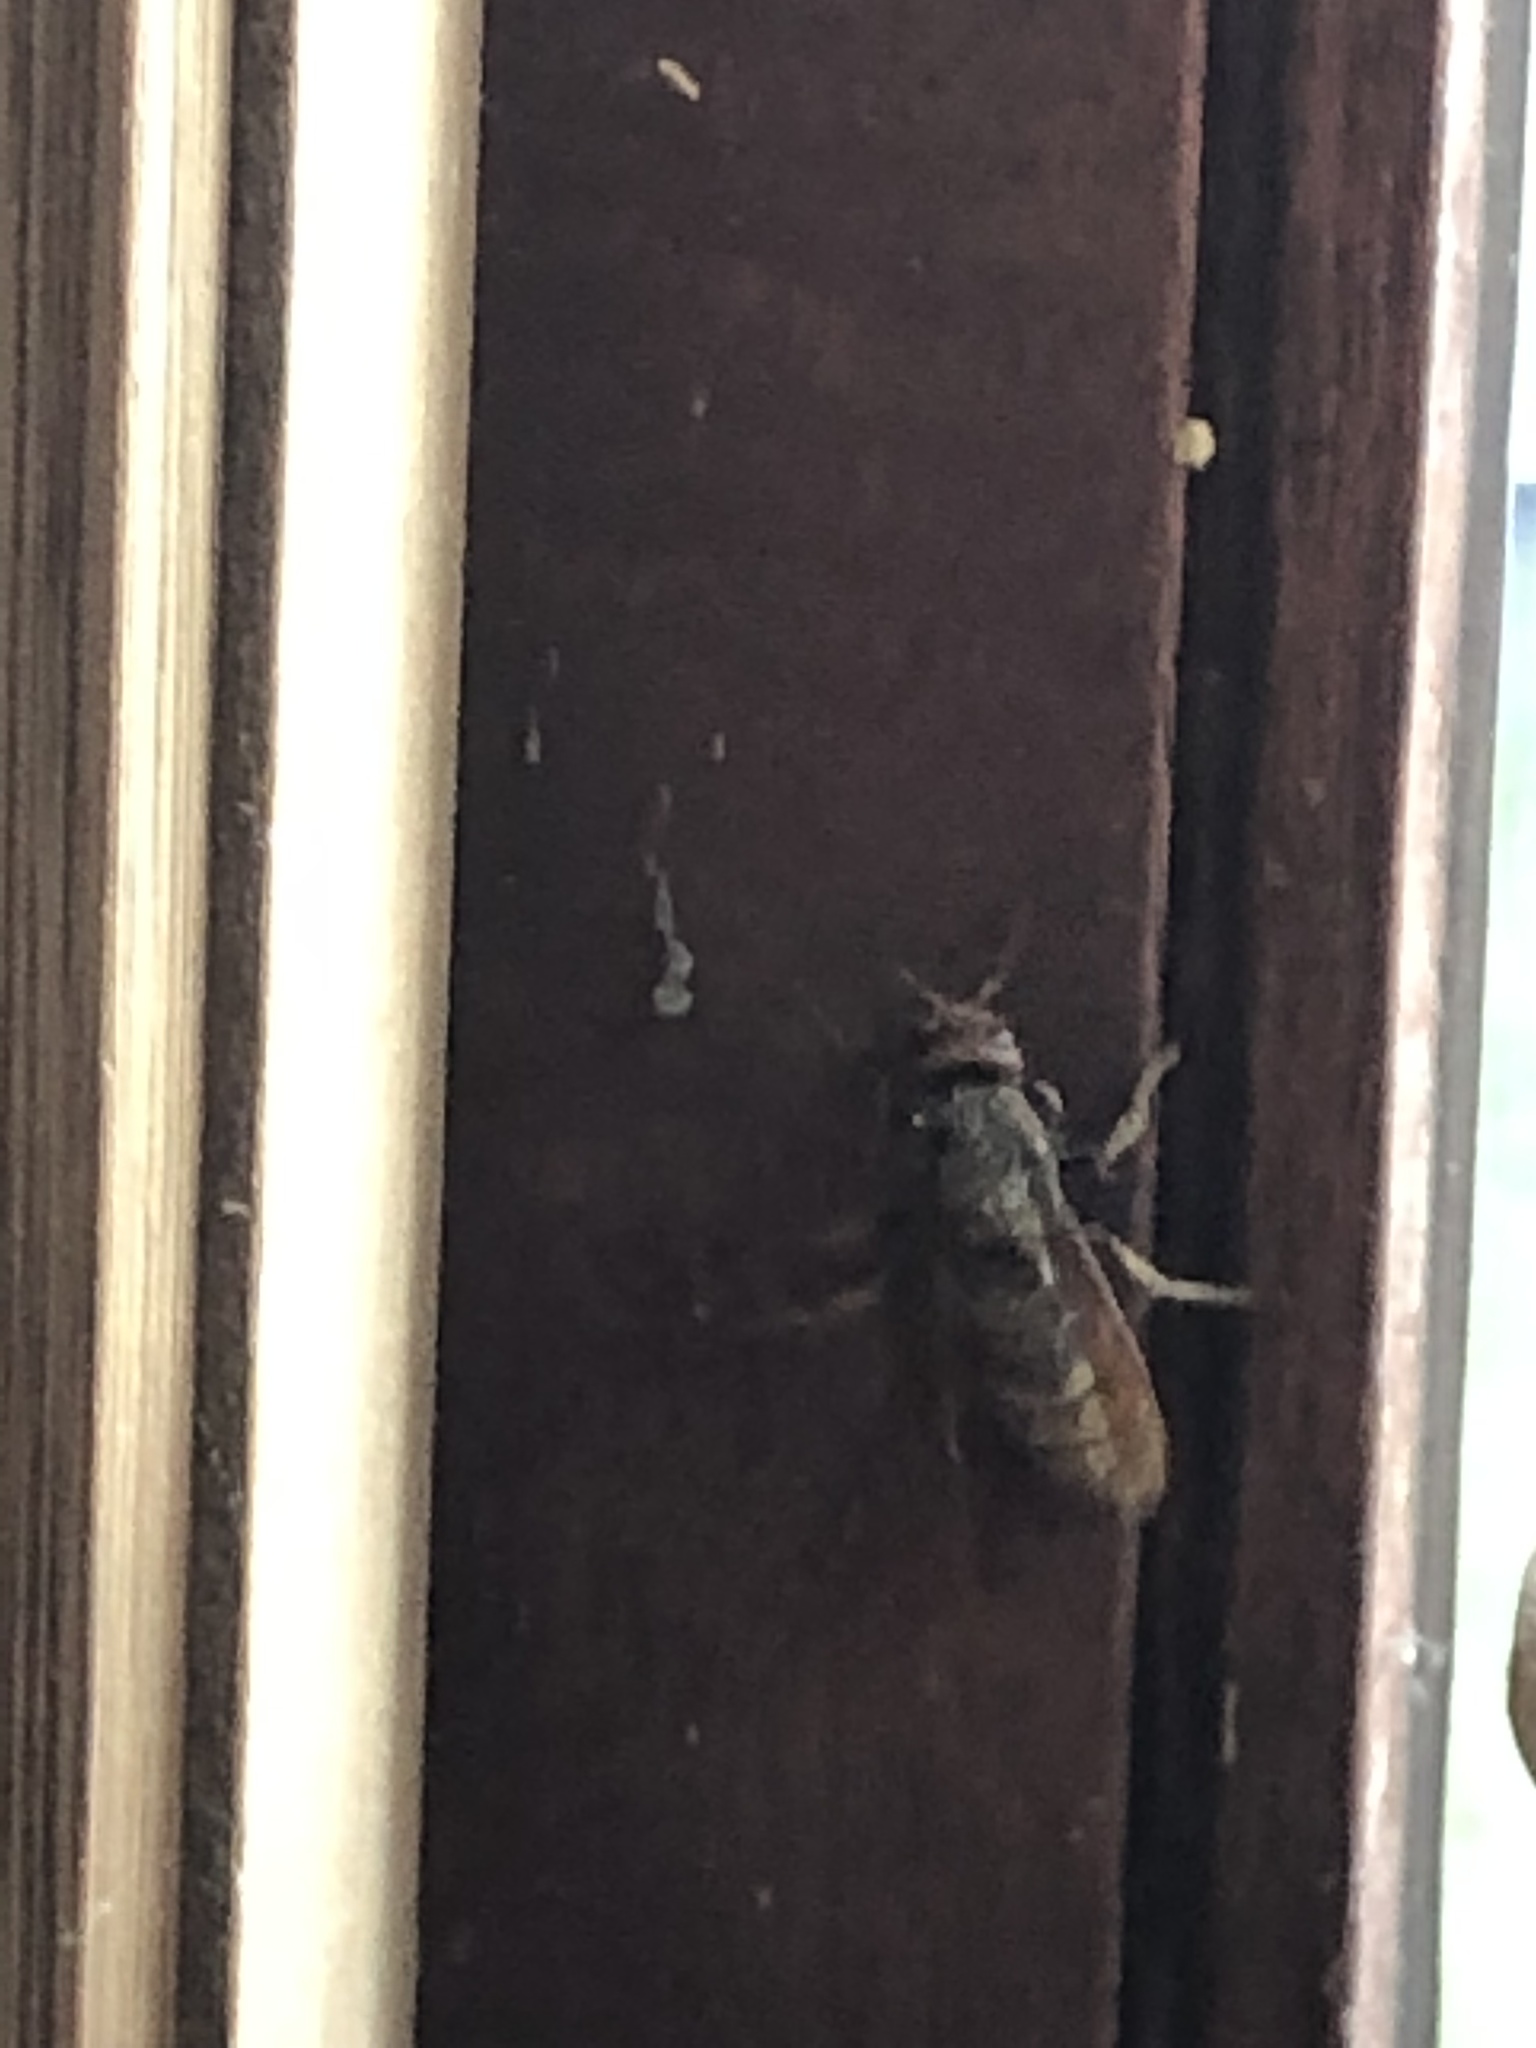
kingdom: Animalia
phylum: Arthropoda
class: Insecta
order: Hymenoptera
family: Vespidae
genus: Vespa
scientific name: Vespa crabro
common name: Hornet
